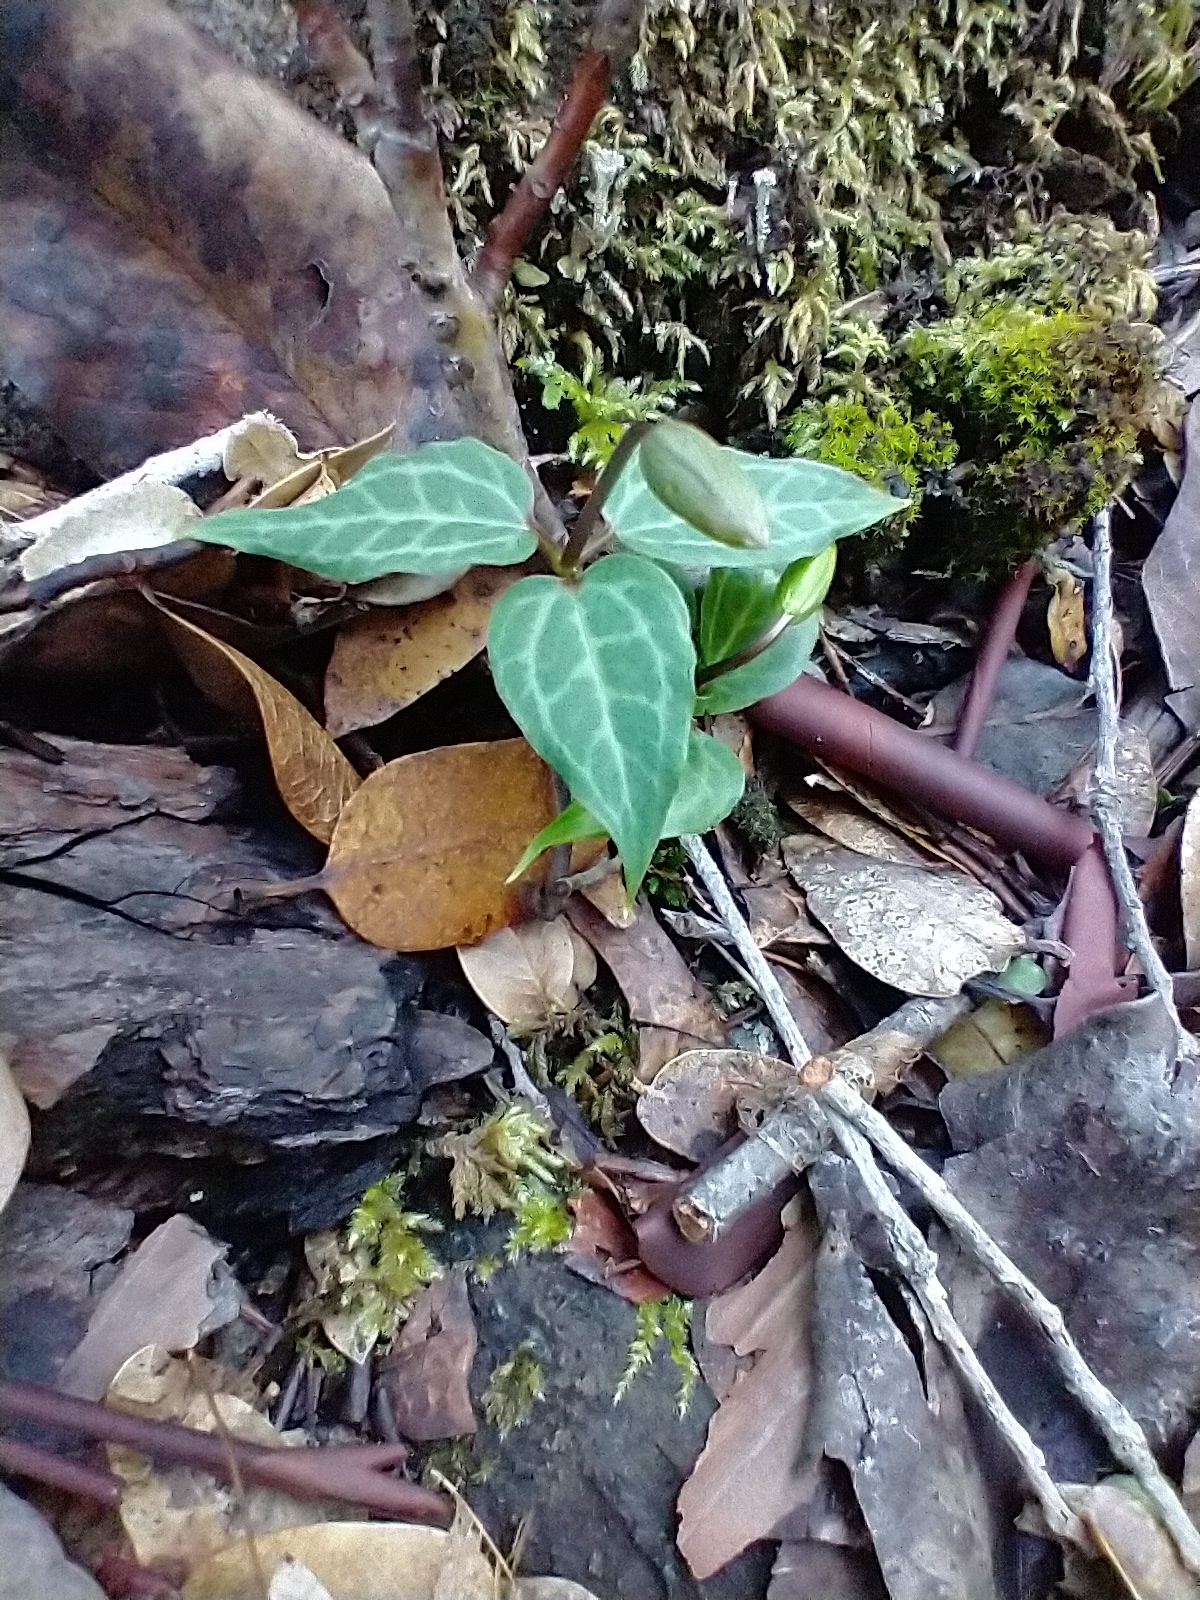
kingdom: Plantae
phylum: Tracheophyta
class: Liliopsida
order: Liliales
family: Melanthiaceae
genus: Pseudotrillium
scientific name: Pseudotrillium rivale
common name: Brook wakerobin
